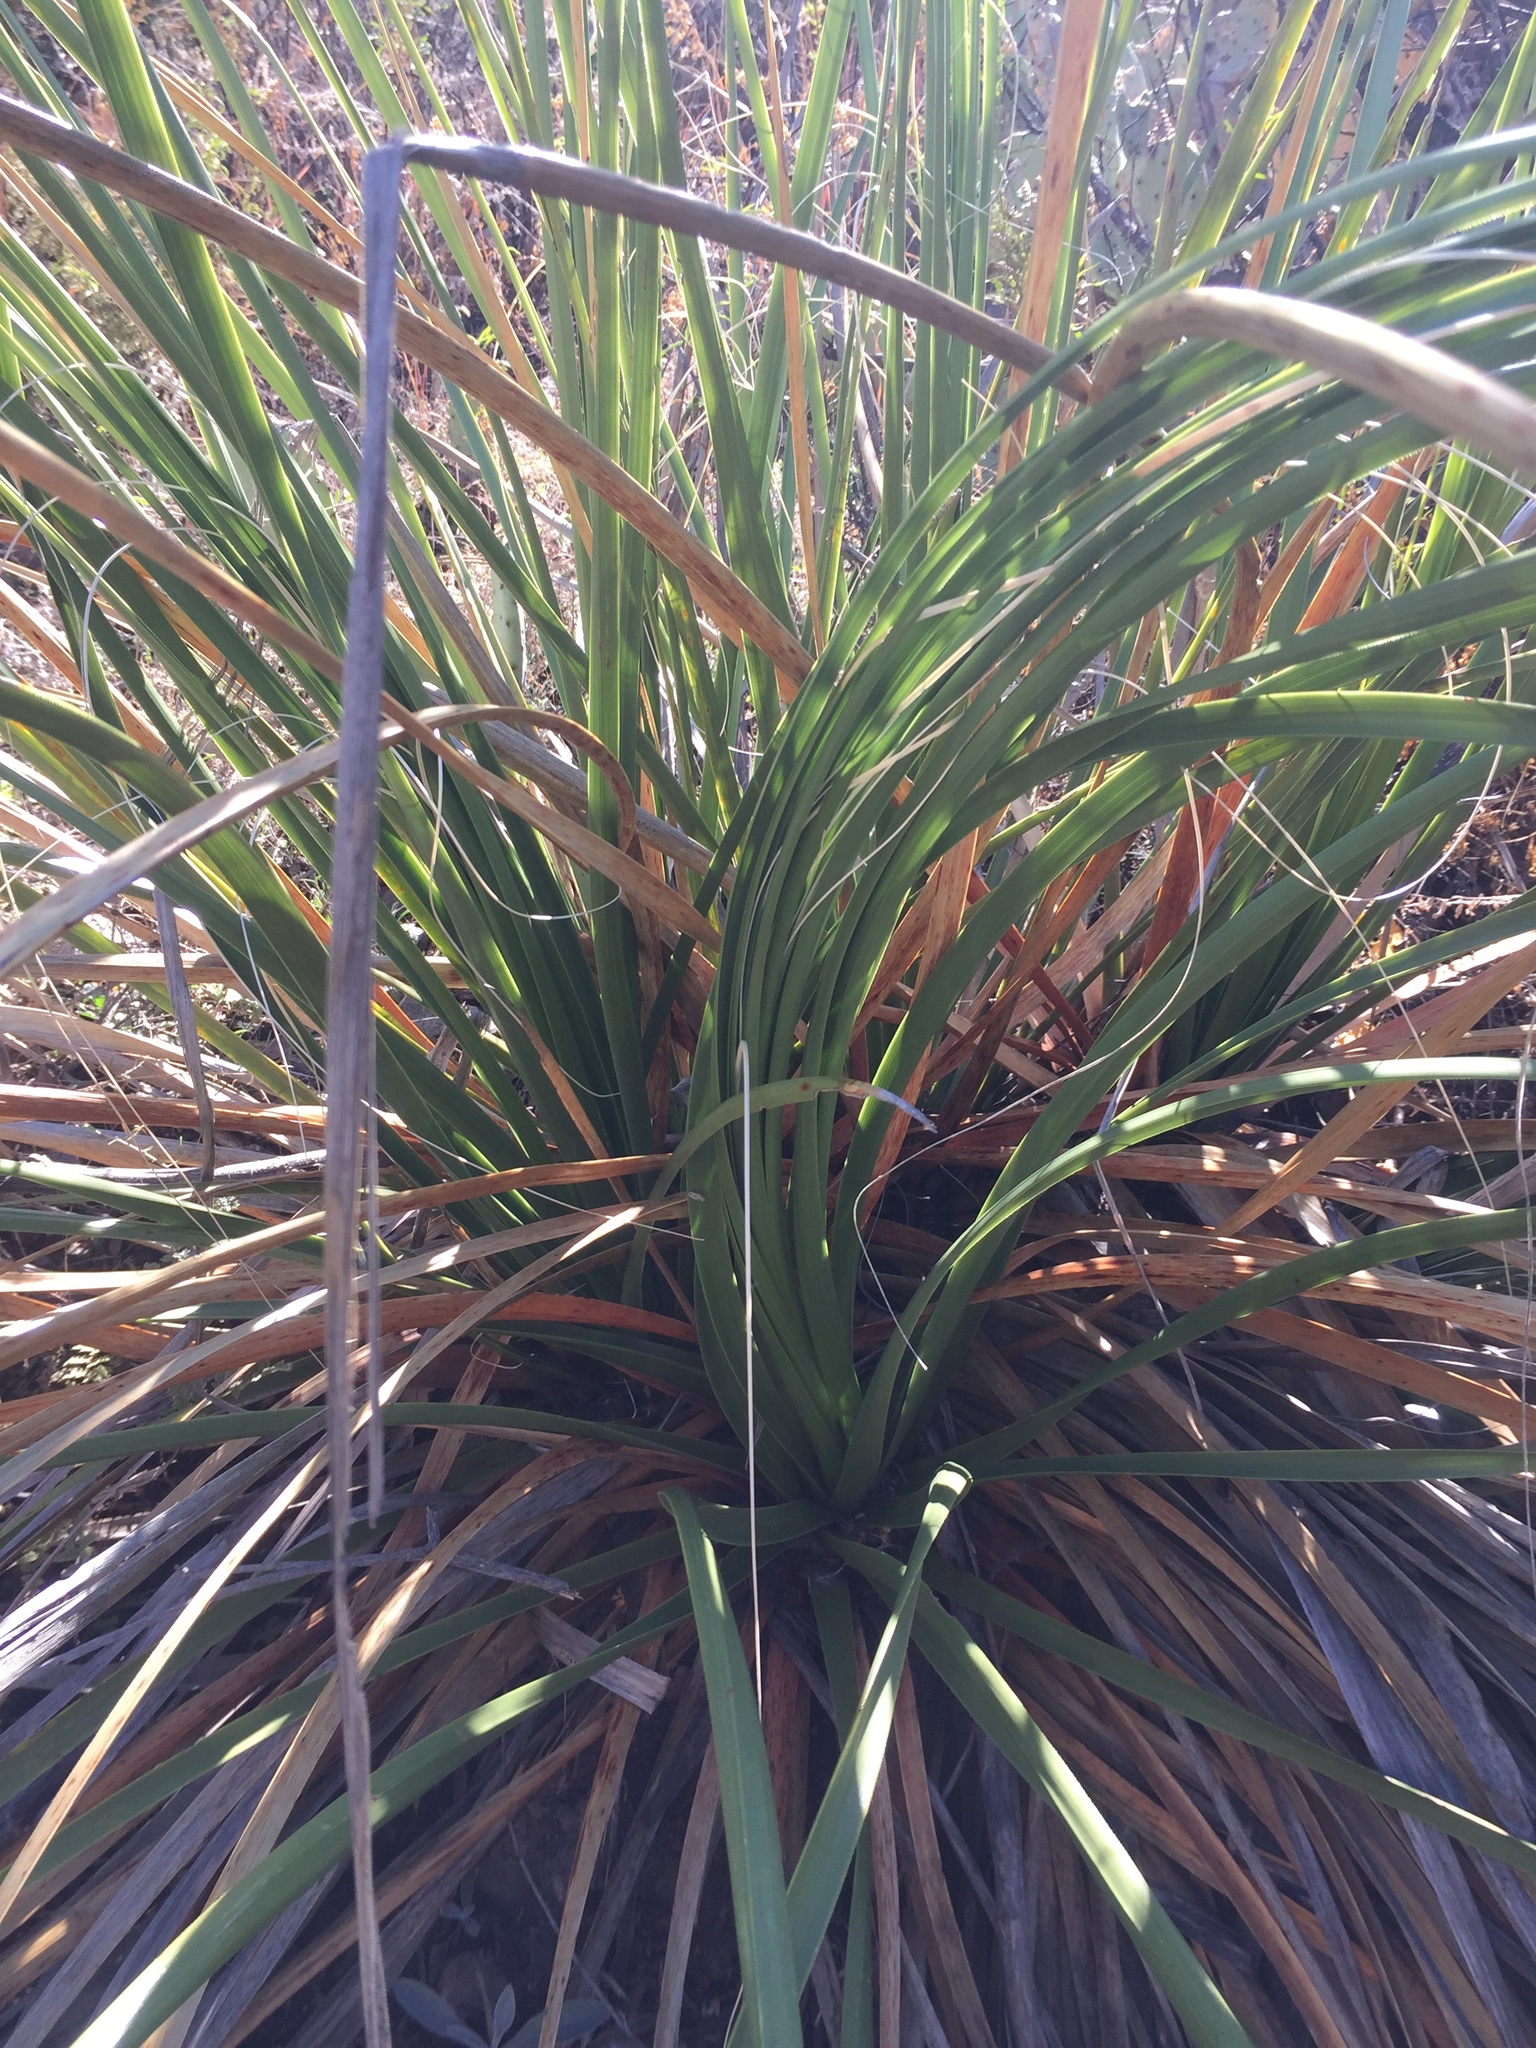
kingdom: Plantae
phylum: Tracheophyta
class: Liliopsida
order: Asparagales
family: Asparagaceae
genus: Nolina
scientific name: Nolina erumpens
